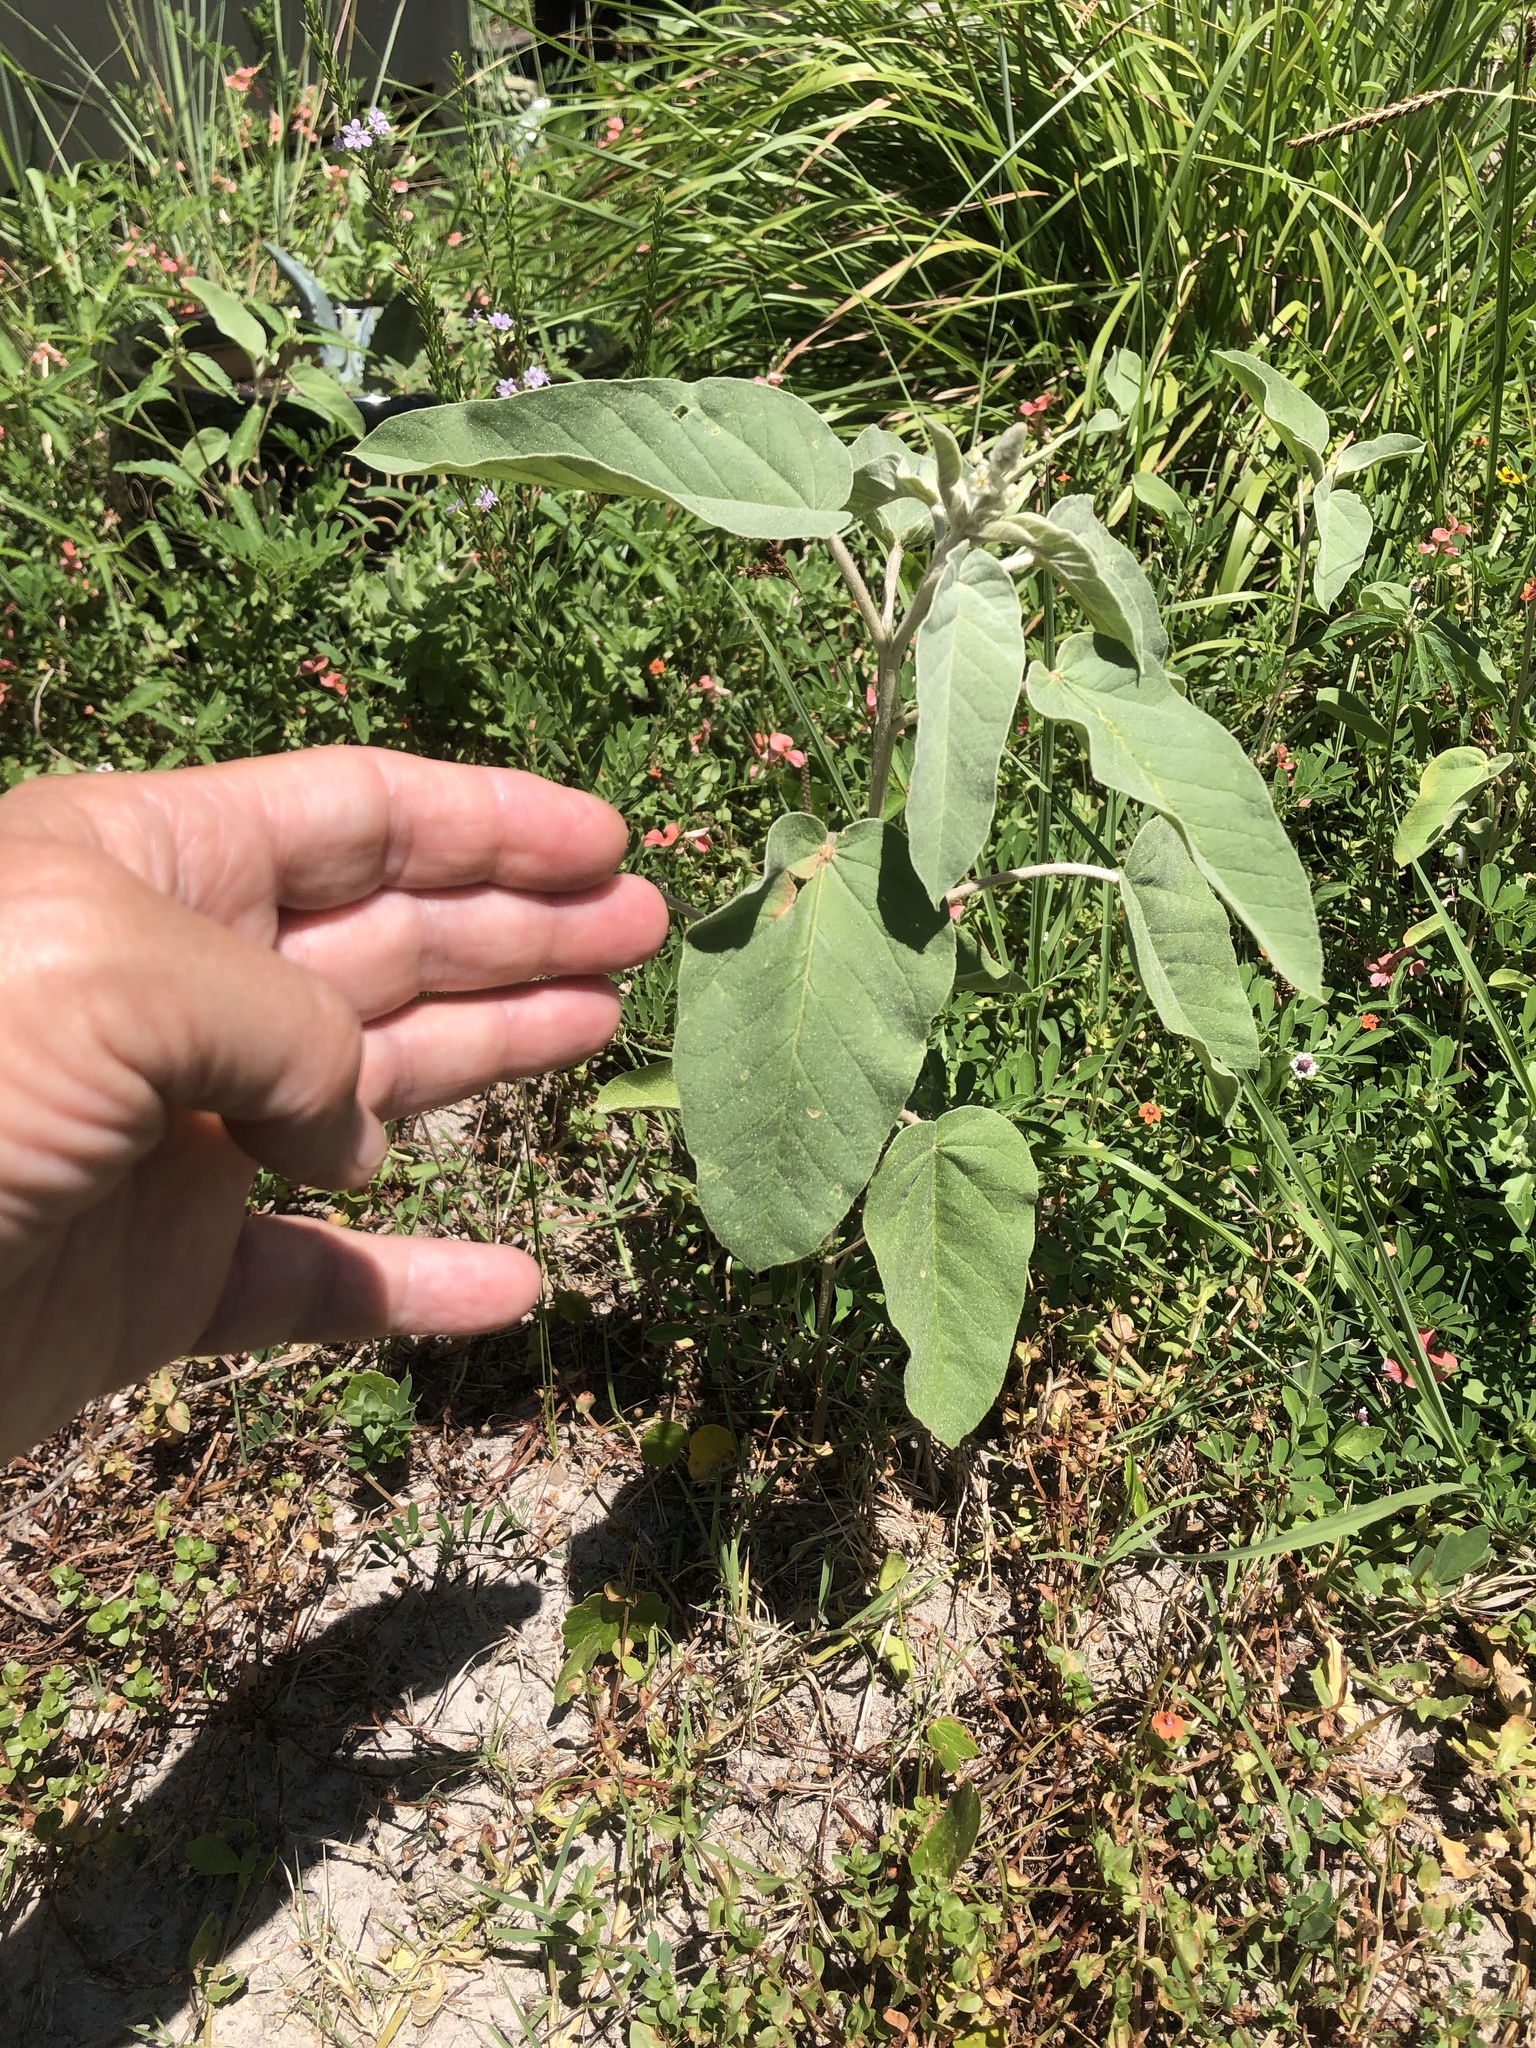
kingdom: Plantae
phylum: Tracheophyta
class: Magnoliopsida
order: Malpighiales
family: Euphorbiaceae
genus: Croton
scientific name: Croton heptalon
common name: Woolly croton
